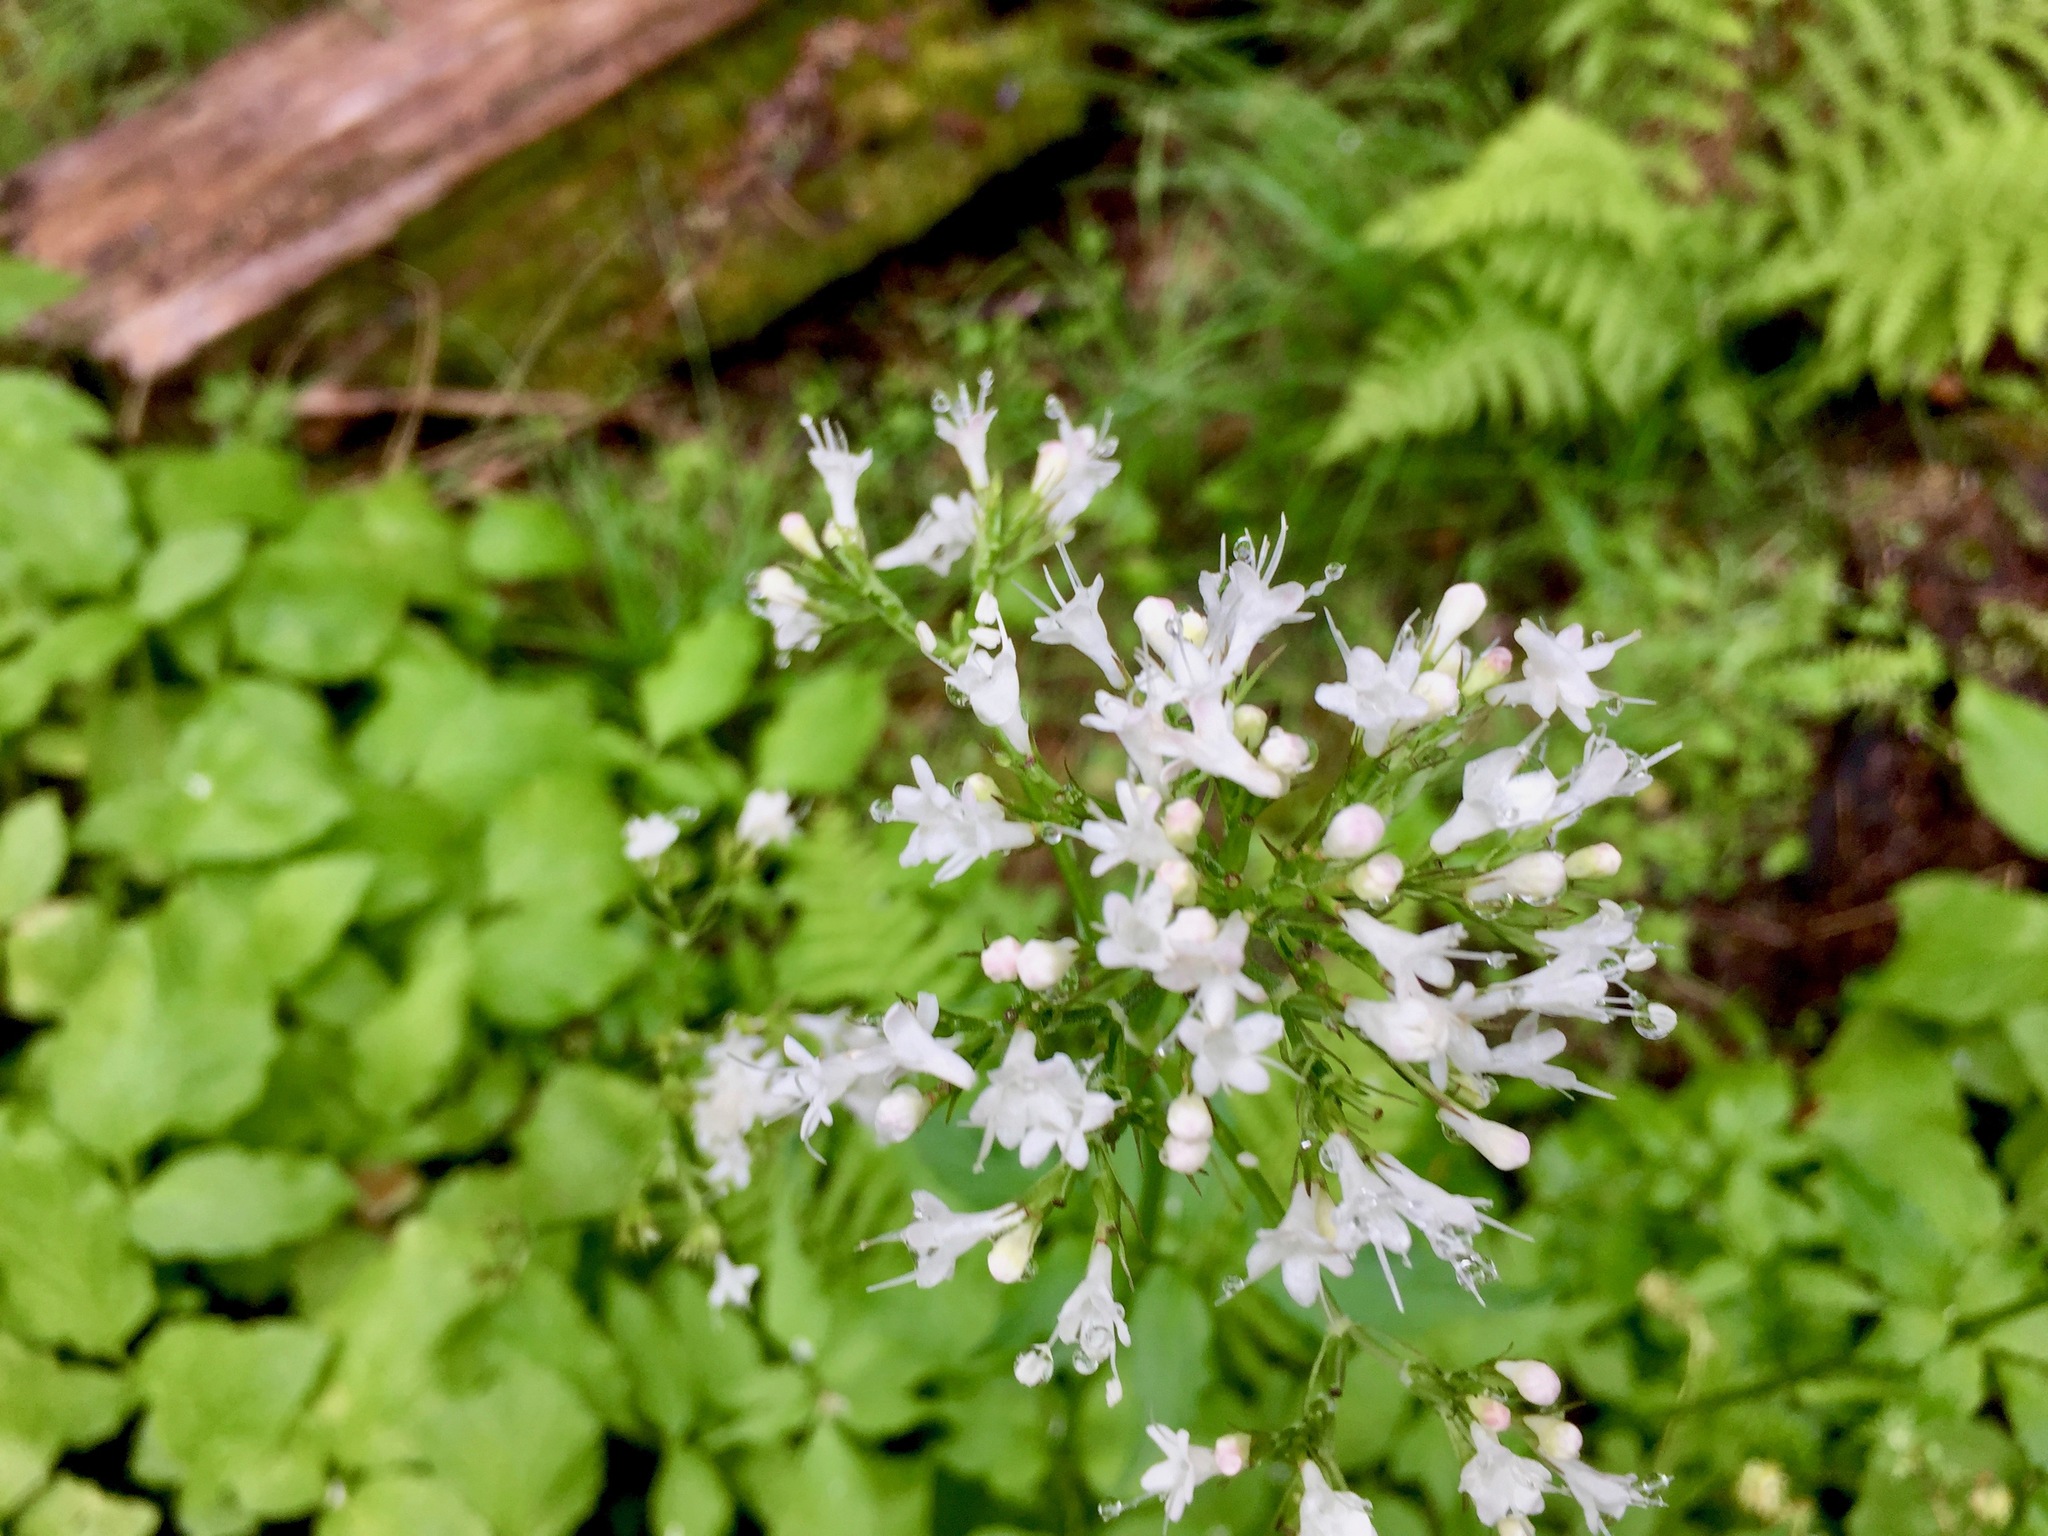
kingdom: Plantae
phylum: Tracheophyta
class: Magnoliopsida
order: Dipsacales
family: Caprifoliaceae
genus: Valeriana
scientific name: Valeriana sitchensis
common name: Pacific valerian
